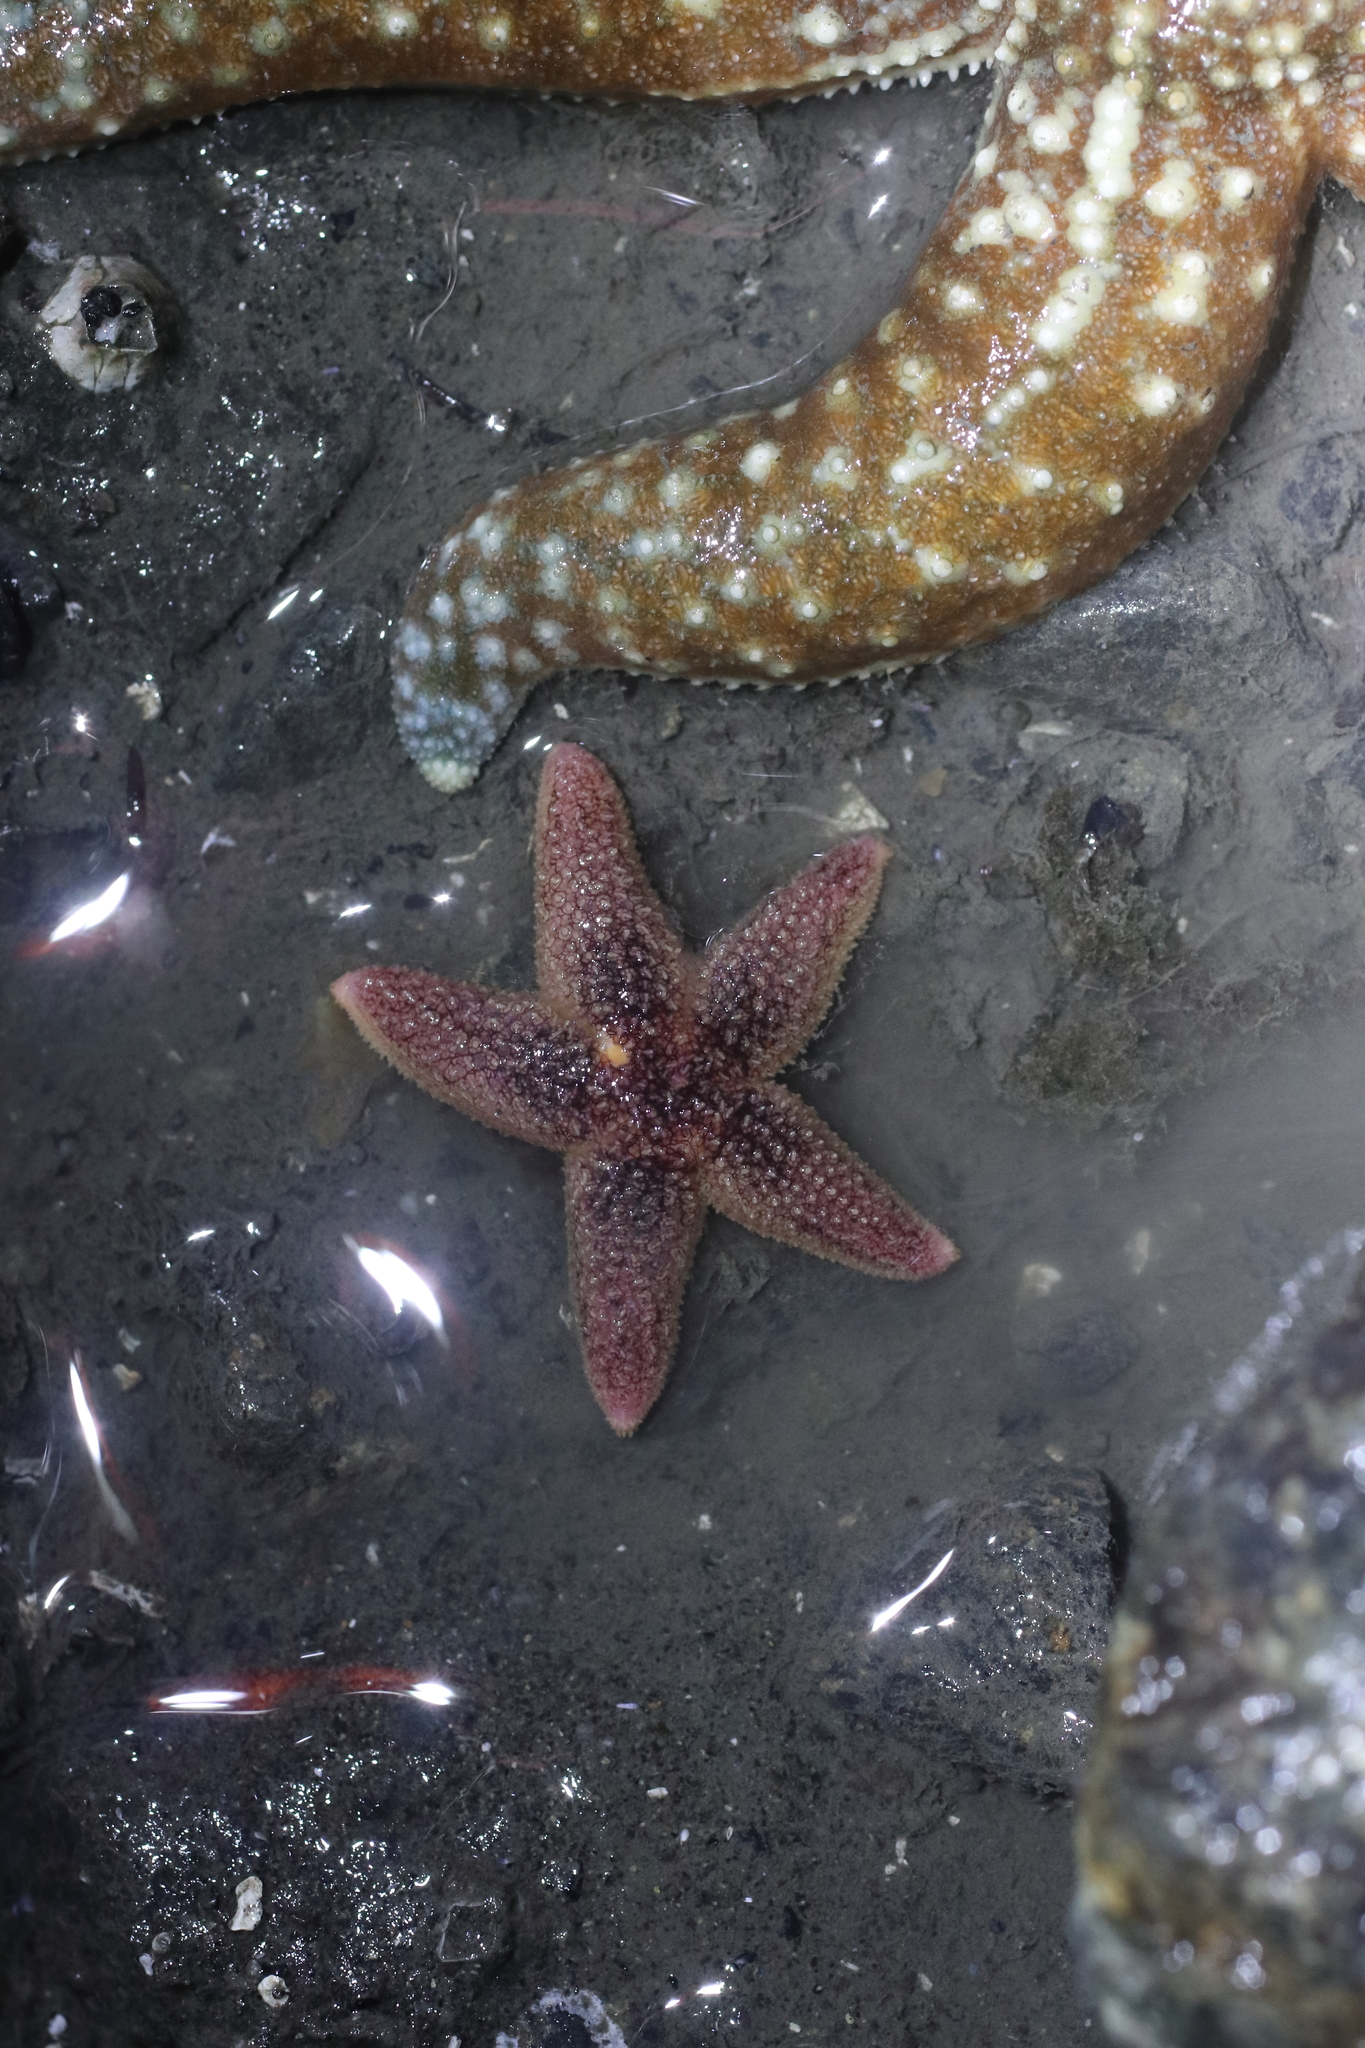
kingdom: Animalia
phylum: Echinodermata
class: Asteroidea
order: Forcipulatida
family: Asteriidae
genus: Asterias
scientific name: Asterias amurensis
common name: Flat-bottomed star
